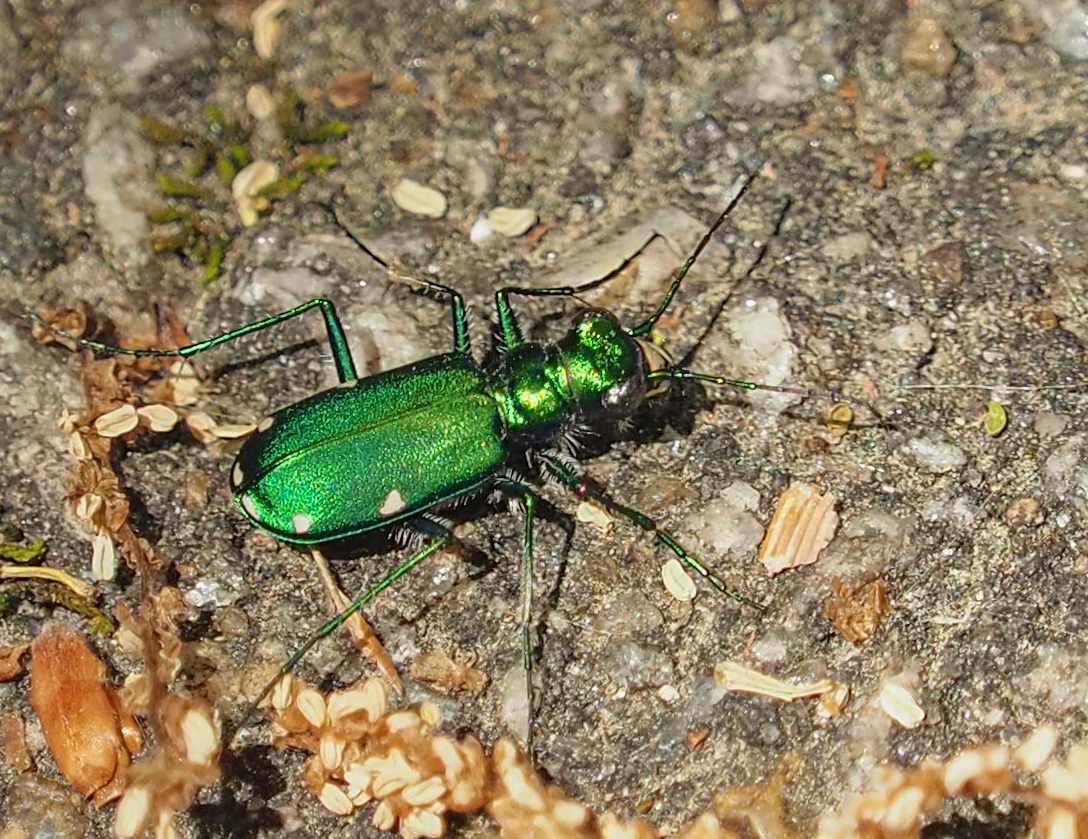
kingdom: Animalia
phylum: Arthropoda
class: Insecta
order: Coleoptera
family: Carabidae
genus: Cicindela
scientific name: Cicindela sexguttata
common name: Six-spotted tiger beetle
